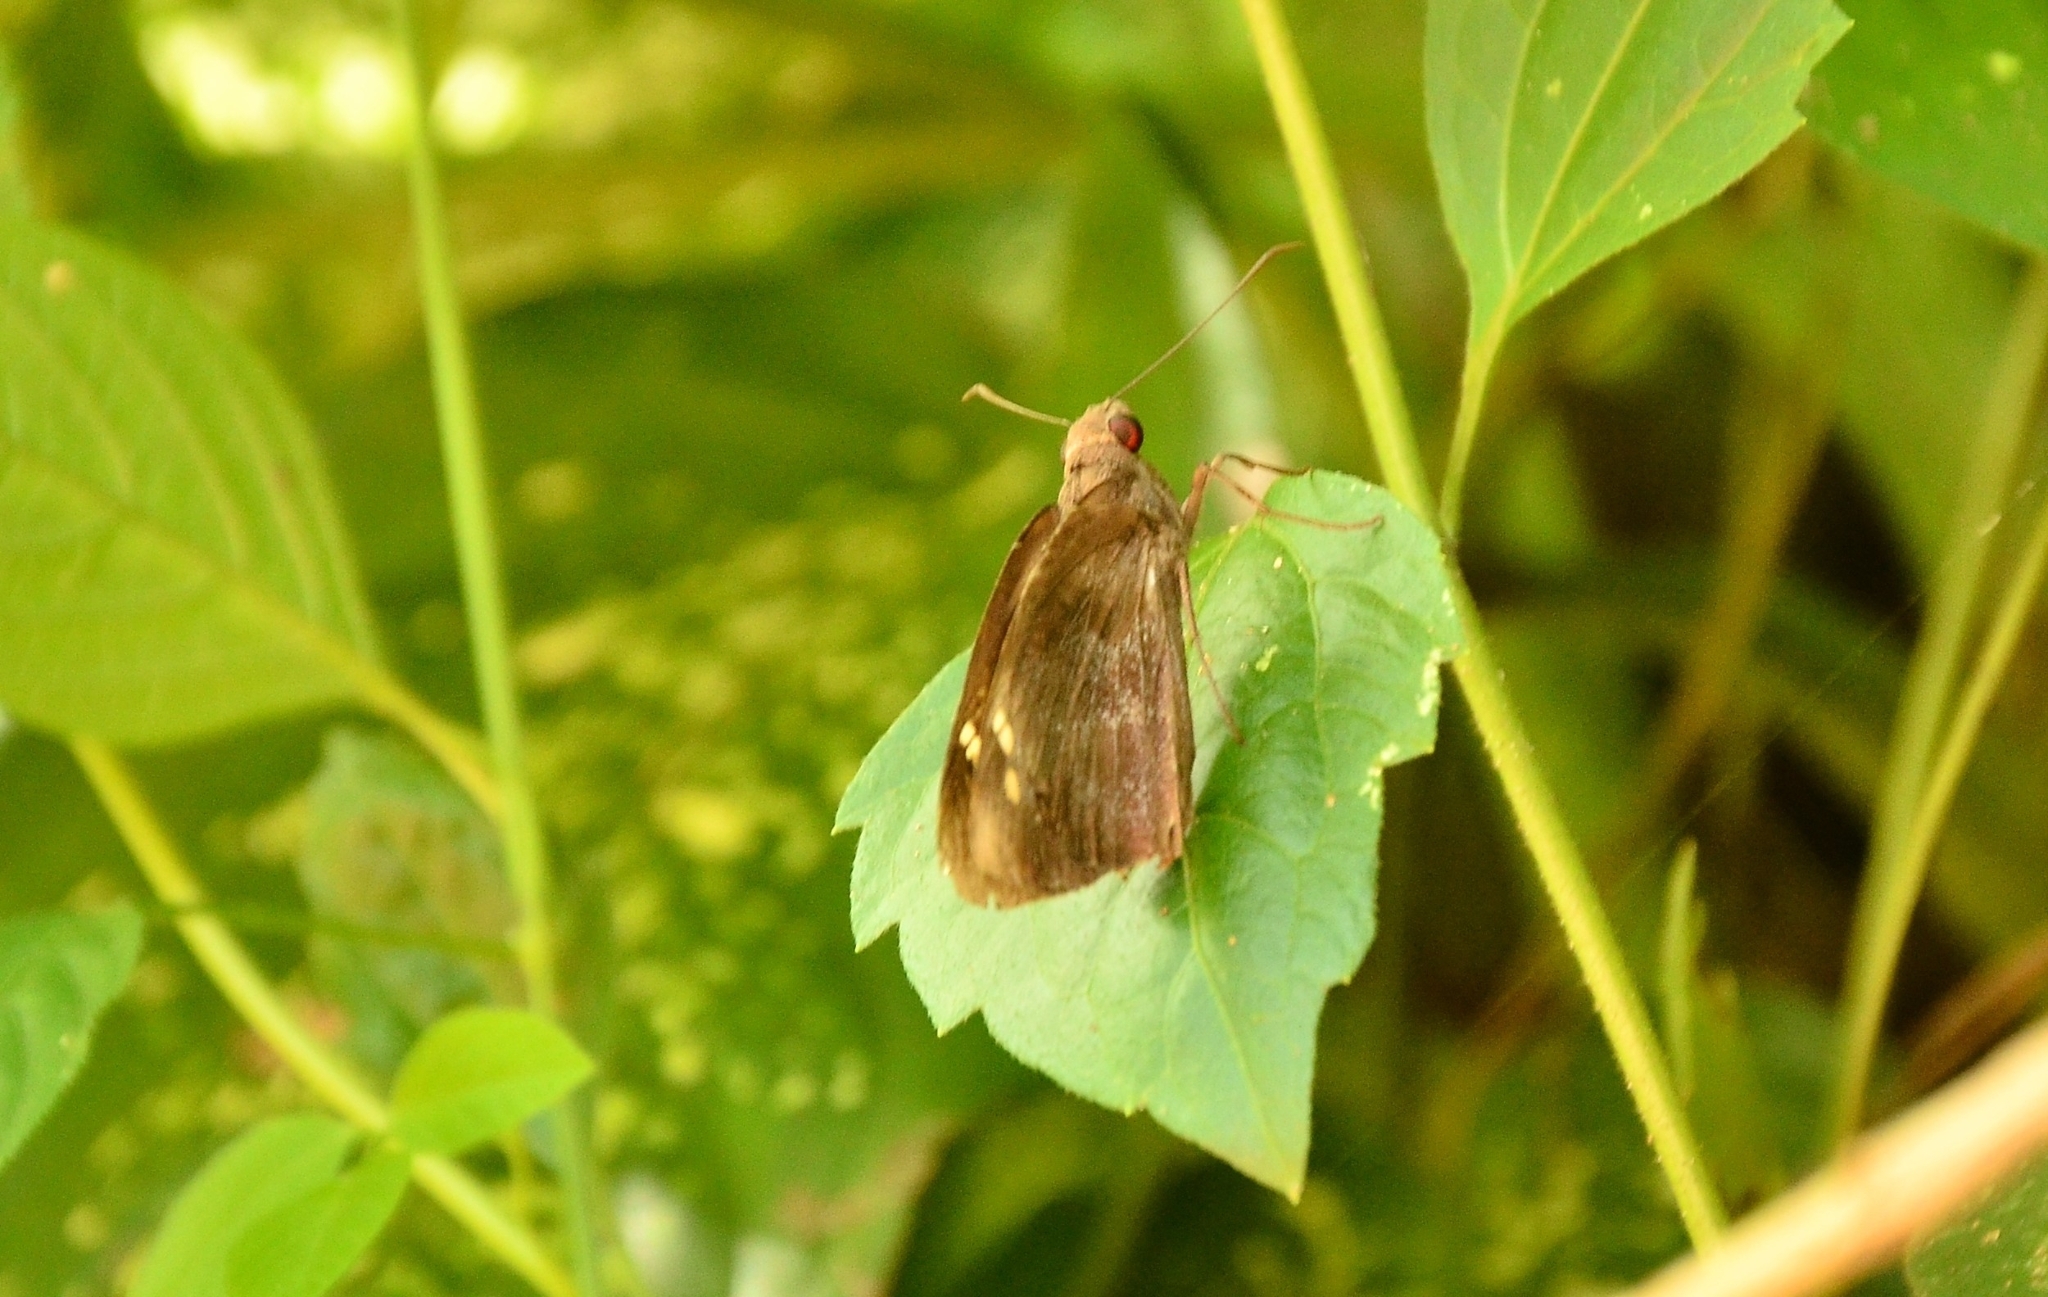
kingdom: Animalia
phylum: Arthropoda
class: Insecta
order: Lepidoptera
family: Hesperiidae
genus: Gangara
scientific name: Gangara thyrsis
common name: Giant redeye
